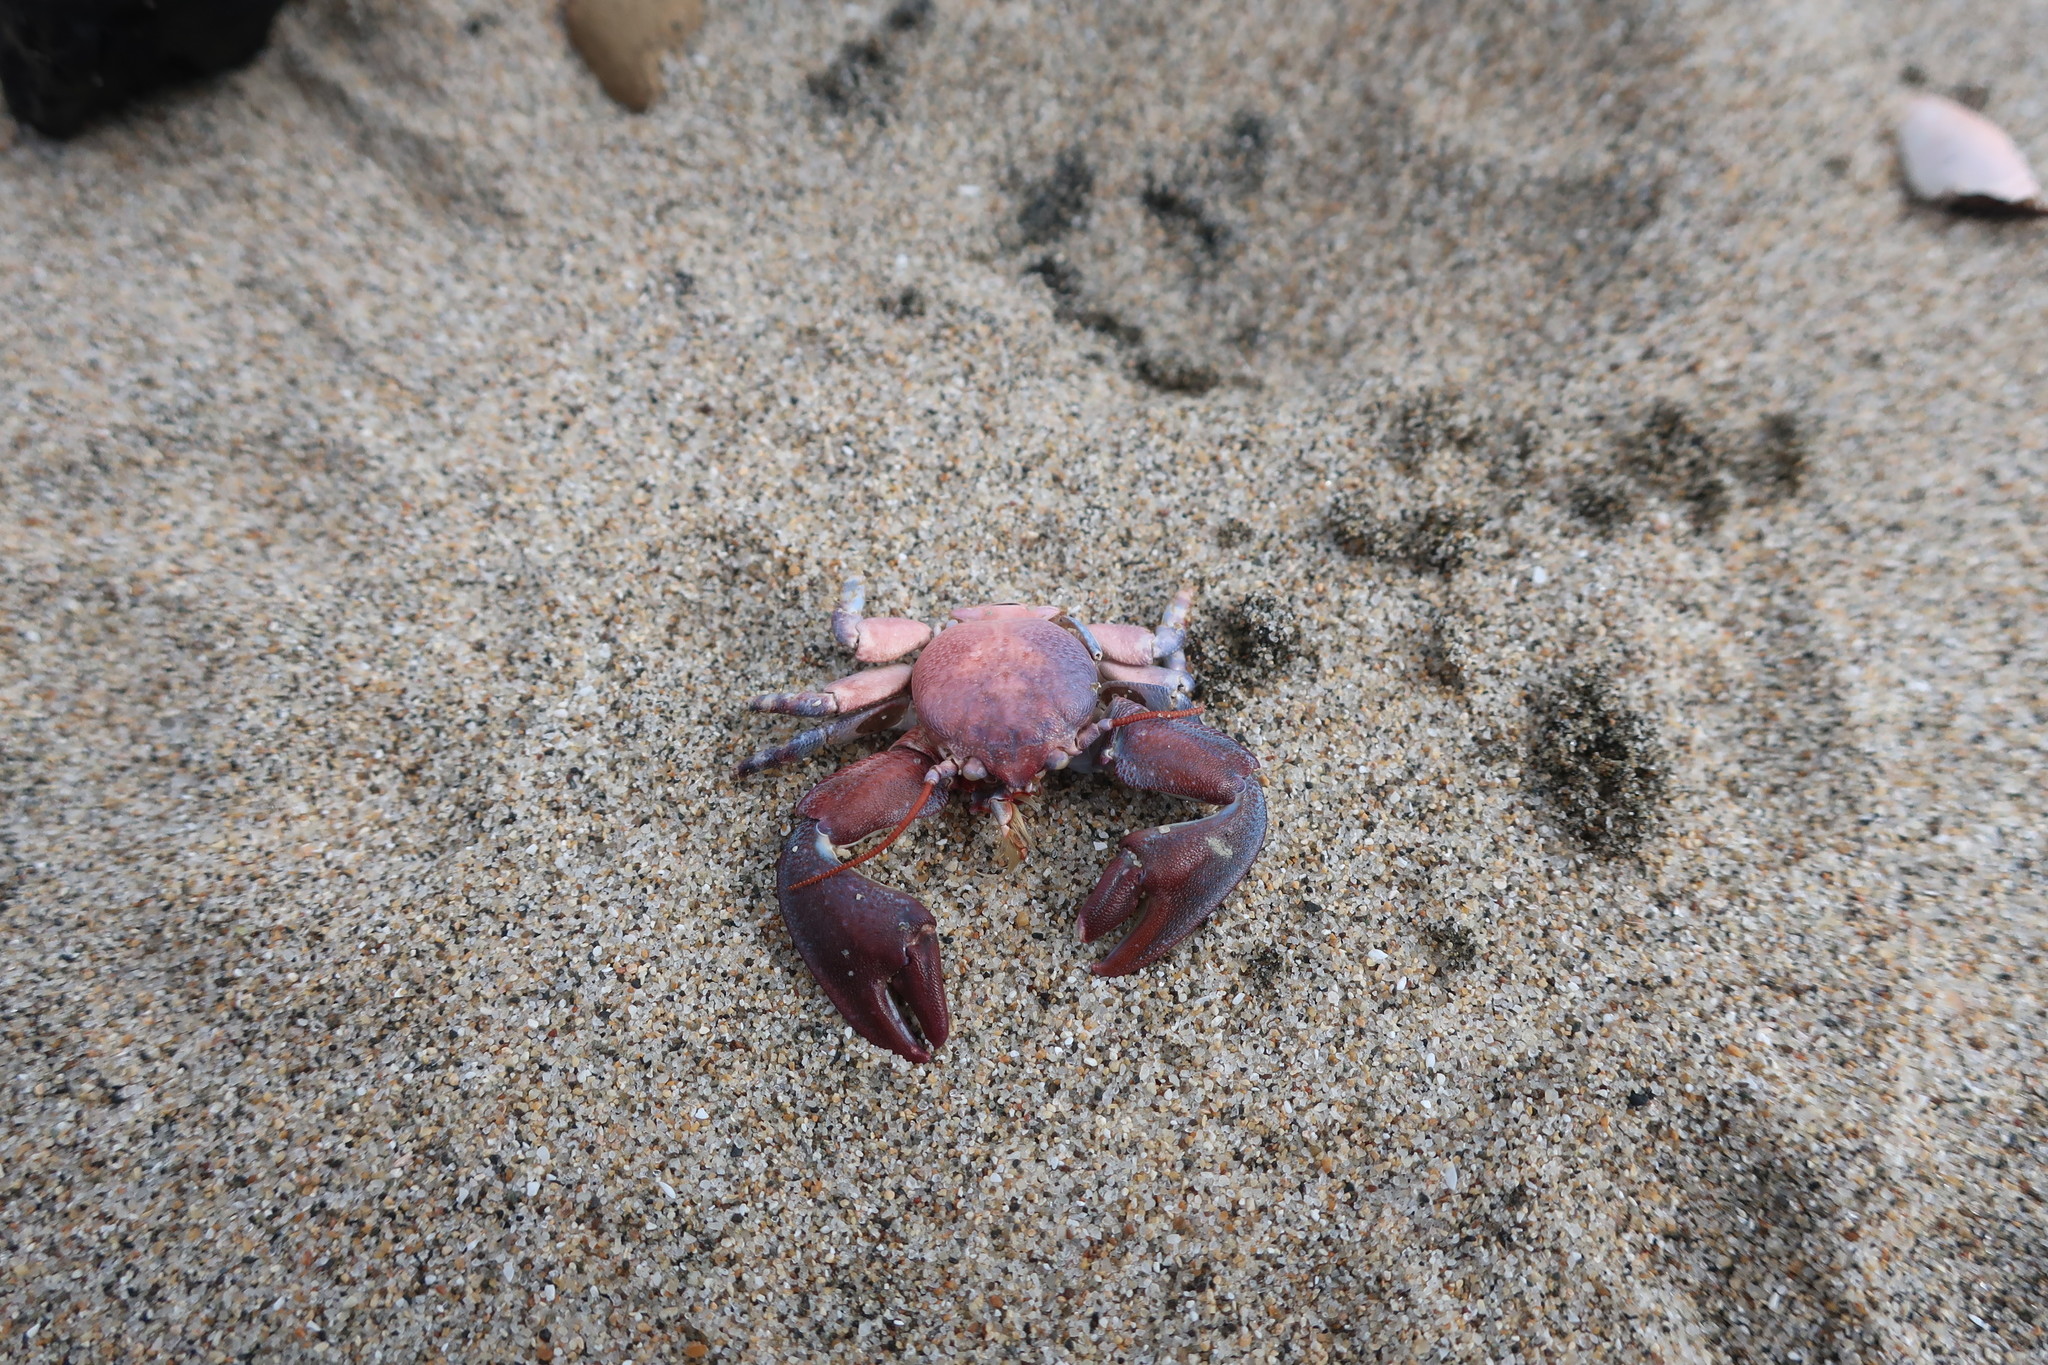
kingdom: Animalia
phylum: Arthropoda
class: Malacostraca
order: Decapoda
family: Porcellanidae
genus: Petrolisthes
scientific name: Petrolisthes cinctipes
